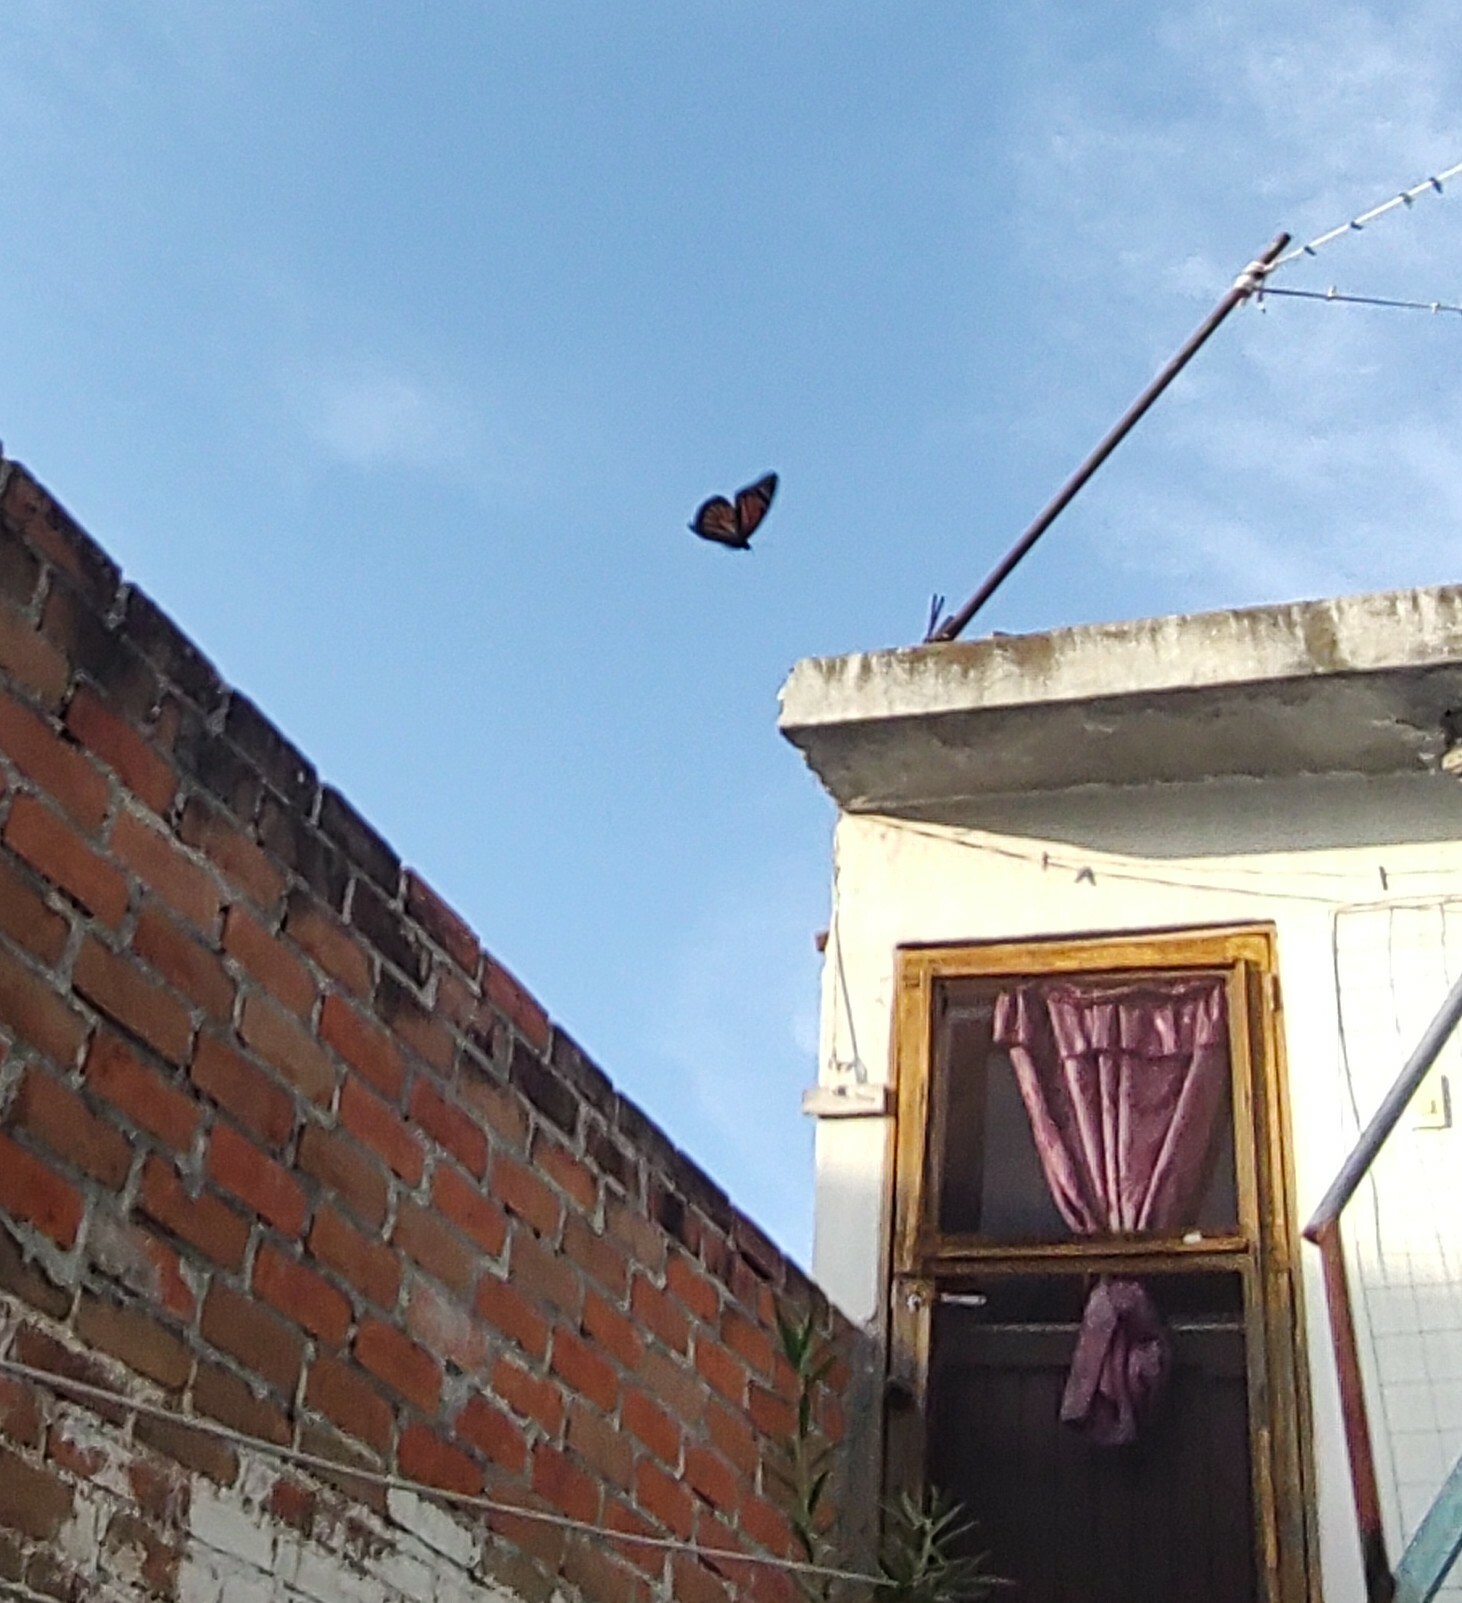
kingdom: Animalia
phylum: Arthropoda
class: Insecta
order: Lepidoptera
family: Nymphalidae
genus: Danaus
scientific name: Danaus plexippus
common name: Monarch
